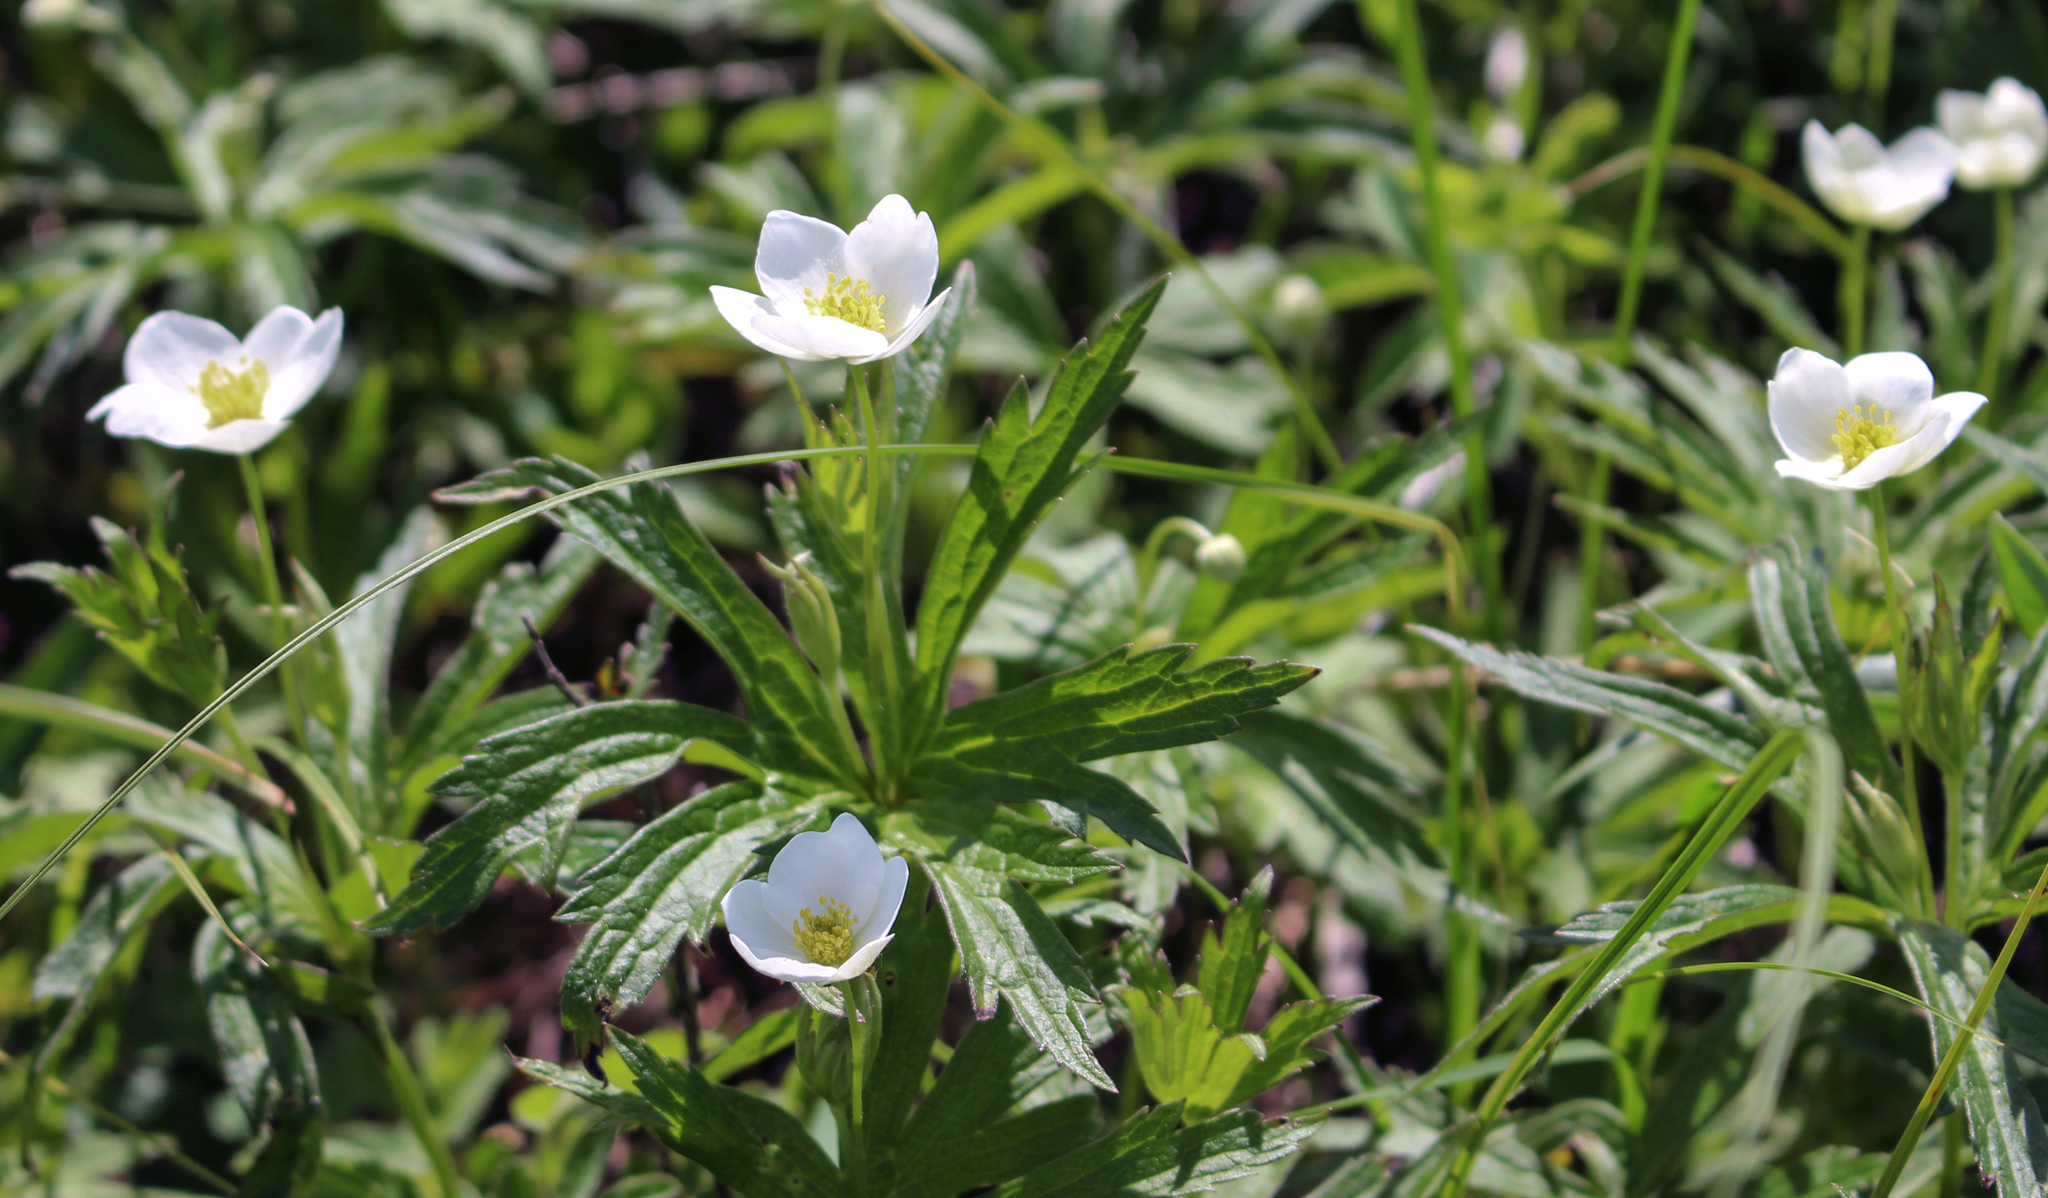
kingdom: Plantae
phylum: Tracheophyta
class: Magnoliopsida
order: Ranunculales
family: Ranunculaceae
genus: Anemonastrum
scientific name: Anemonastrum canadense
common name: Canada anemone
